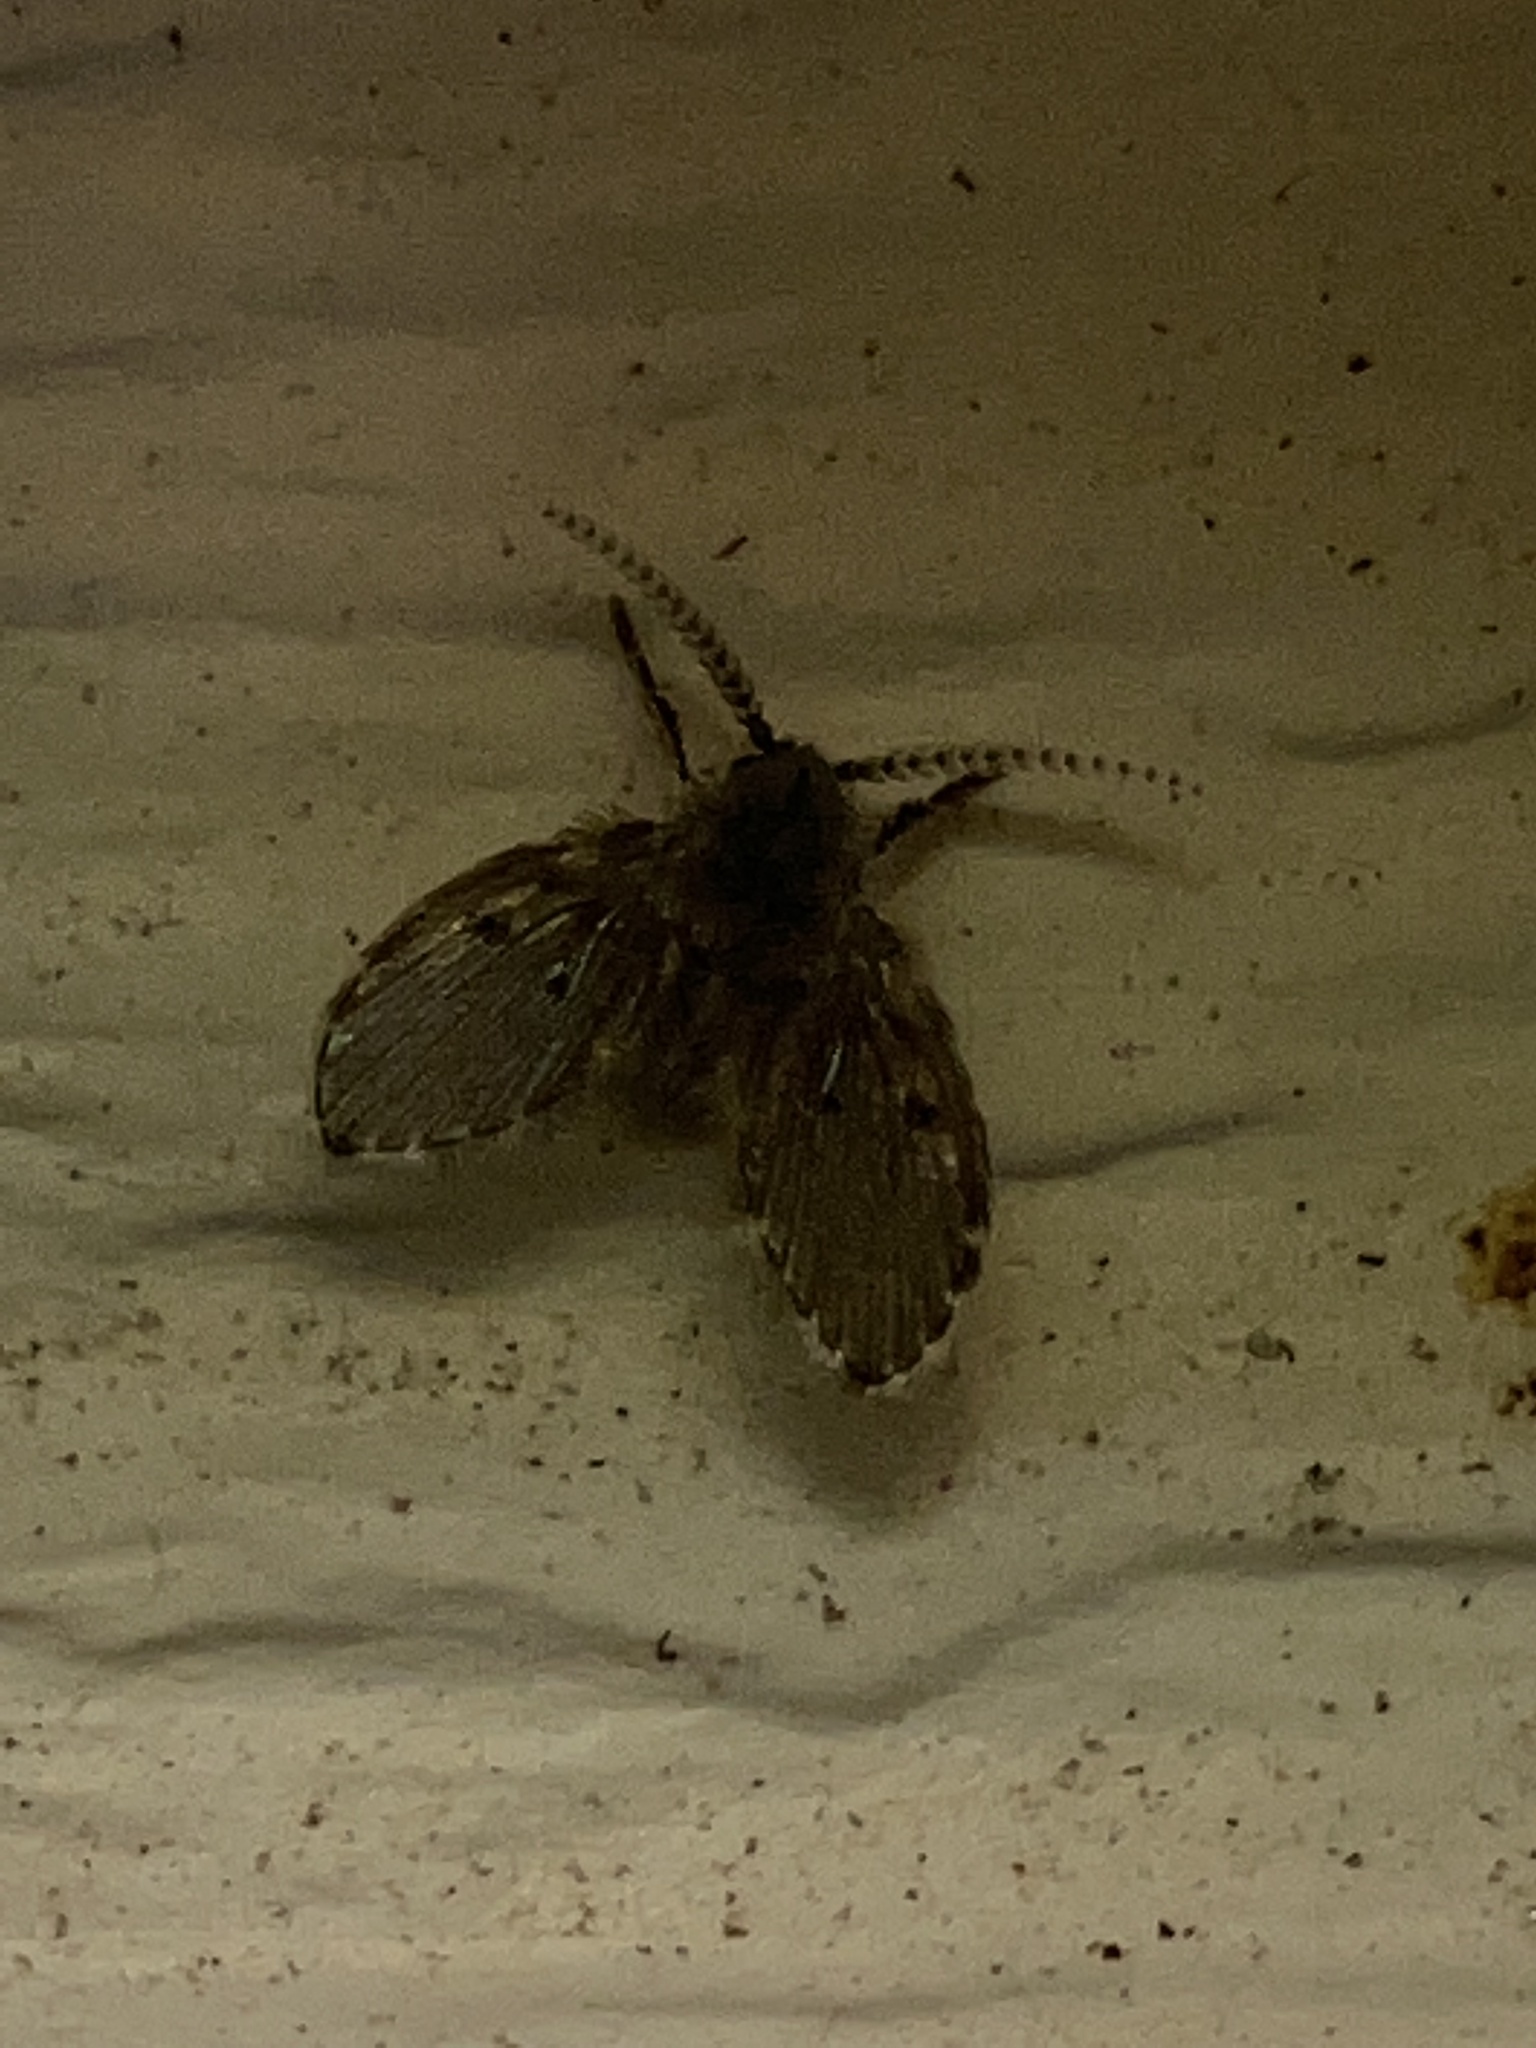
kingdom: Animalia
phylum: Arthropoda
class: Insecta
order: Diptera
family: Psychodidae
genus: Clogmia
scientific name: Clogmia albipunctatus
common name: White-spotted moth fly
